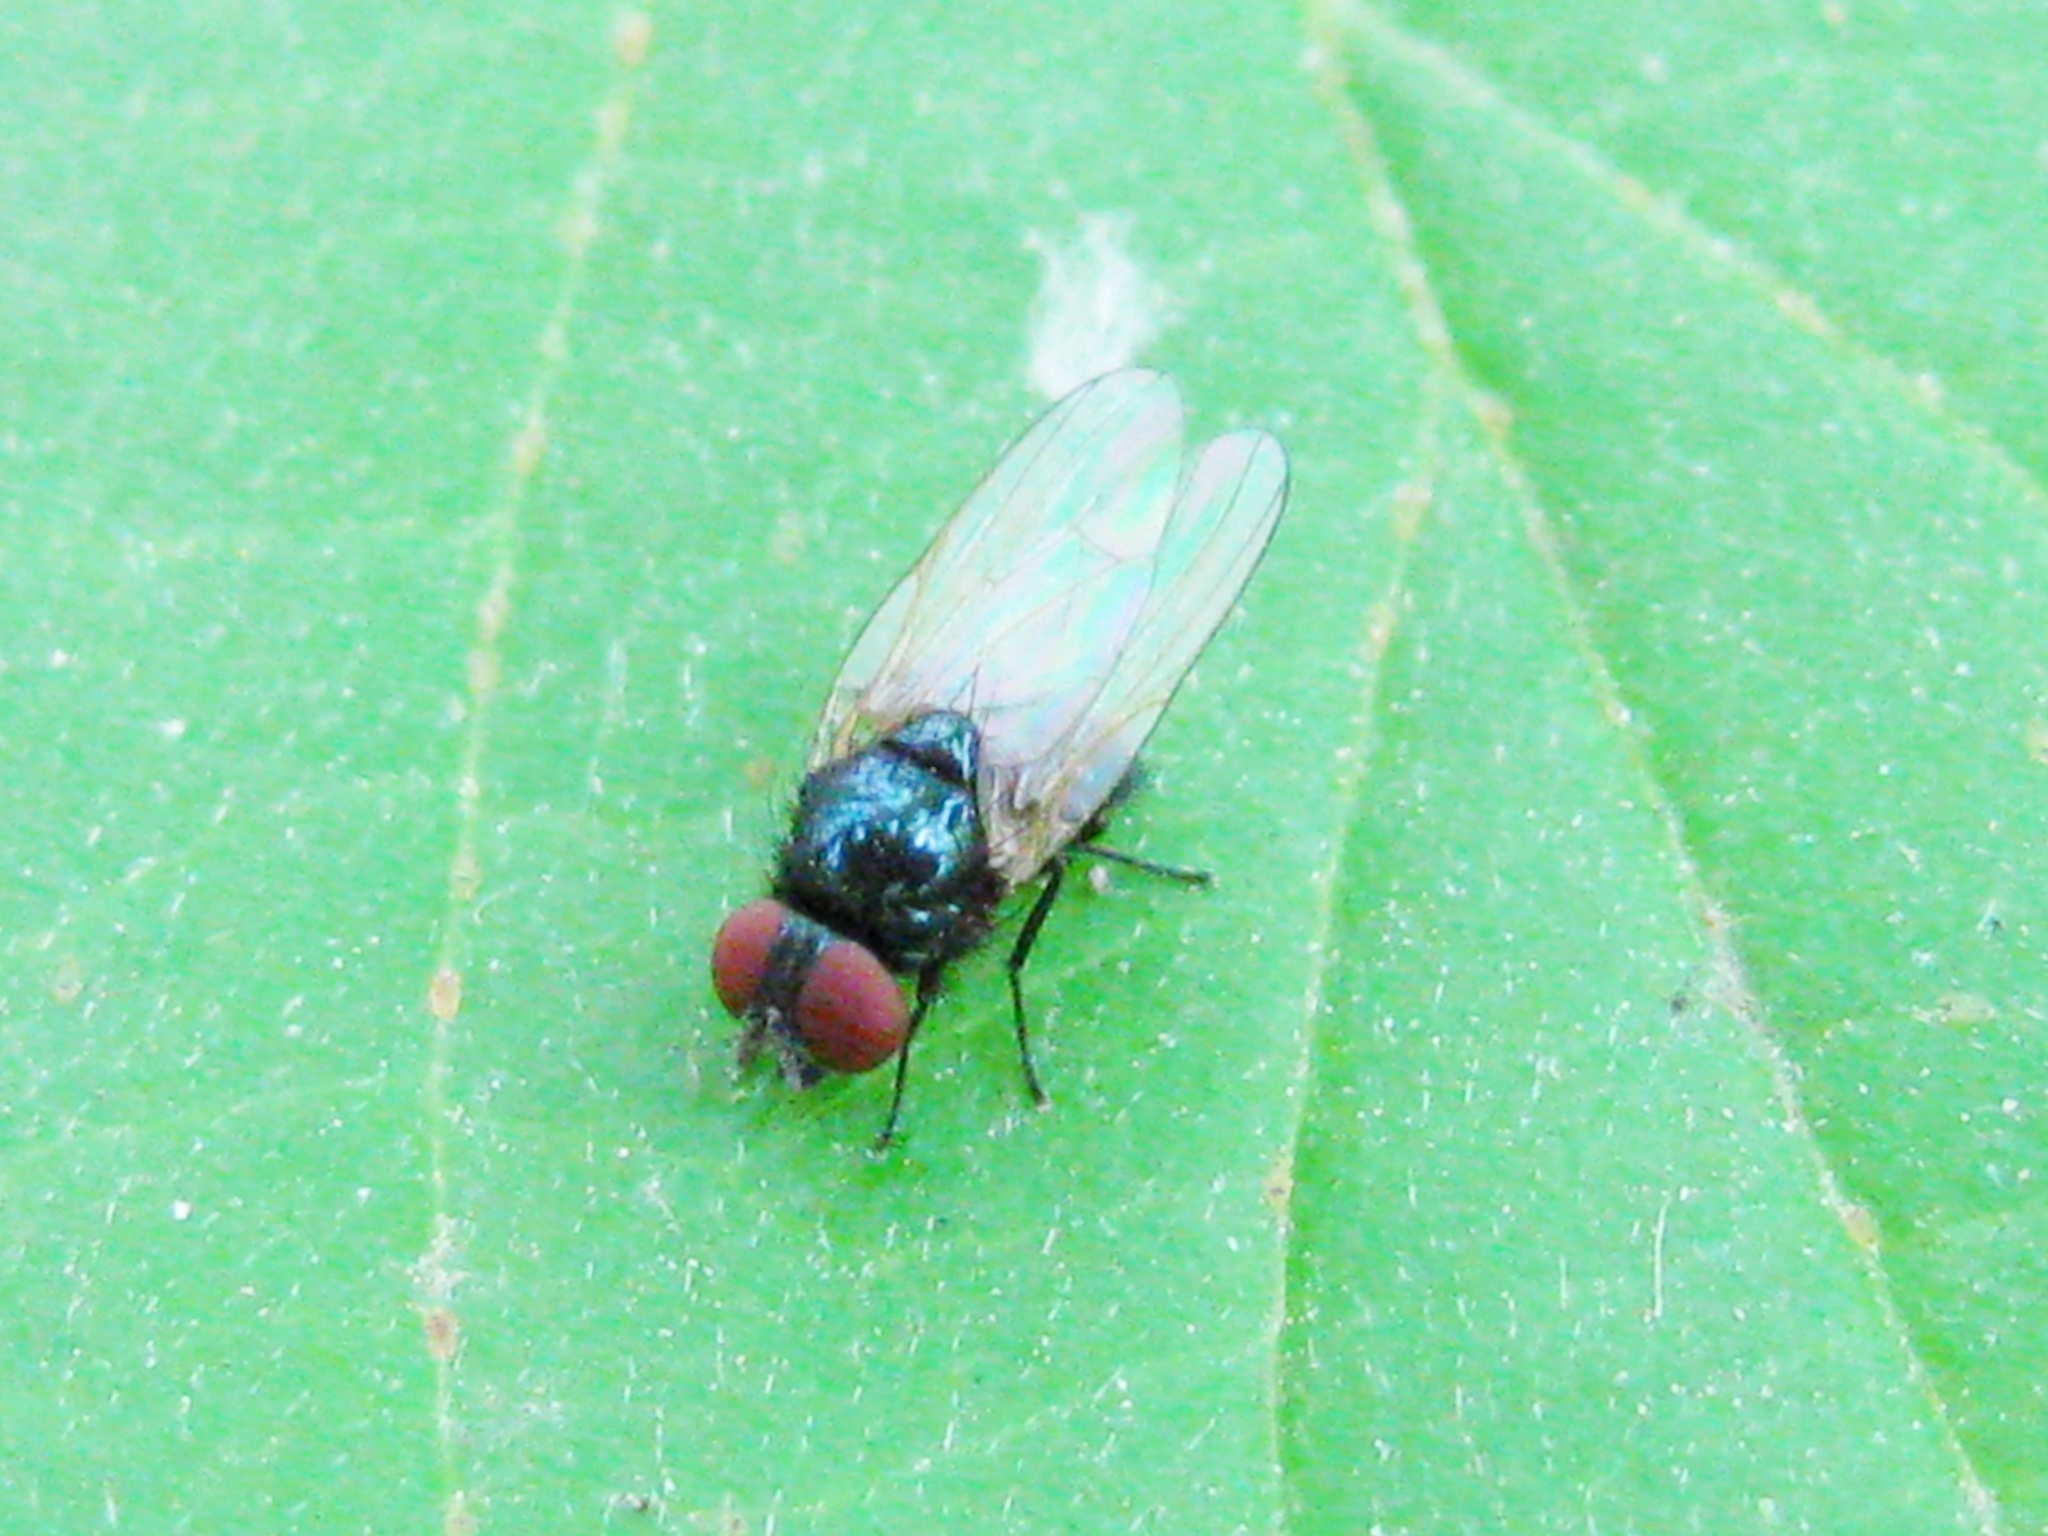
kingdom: Animalia
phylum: Arthropoda
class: Insecta
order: Diptera
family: Lonchaeidae
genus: Lonchaea
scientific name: Lonchaea
